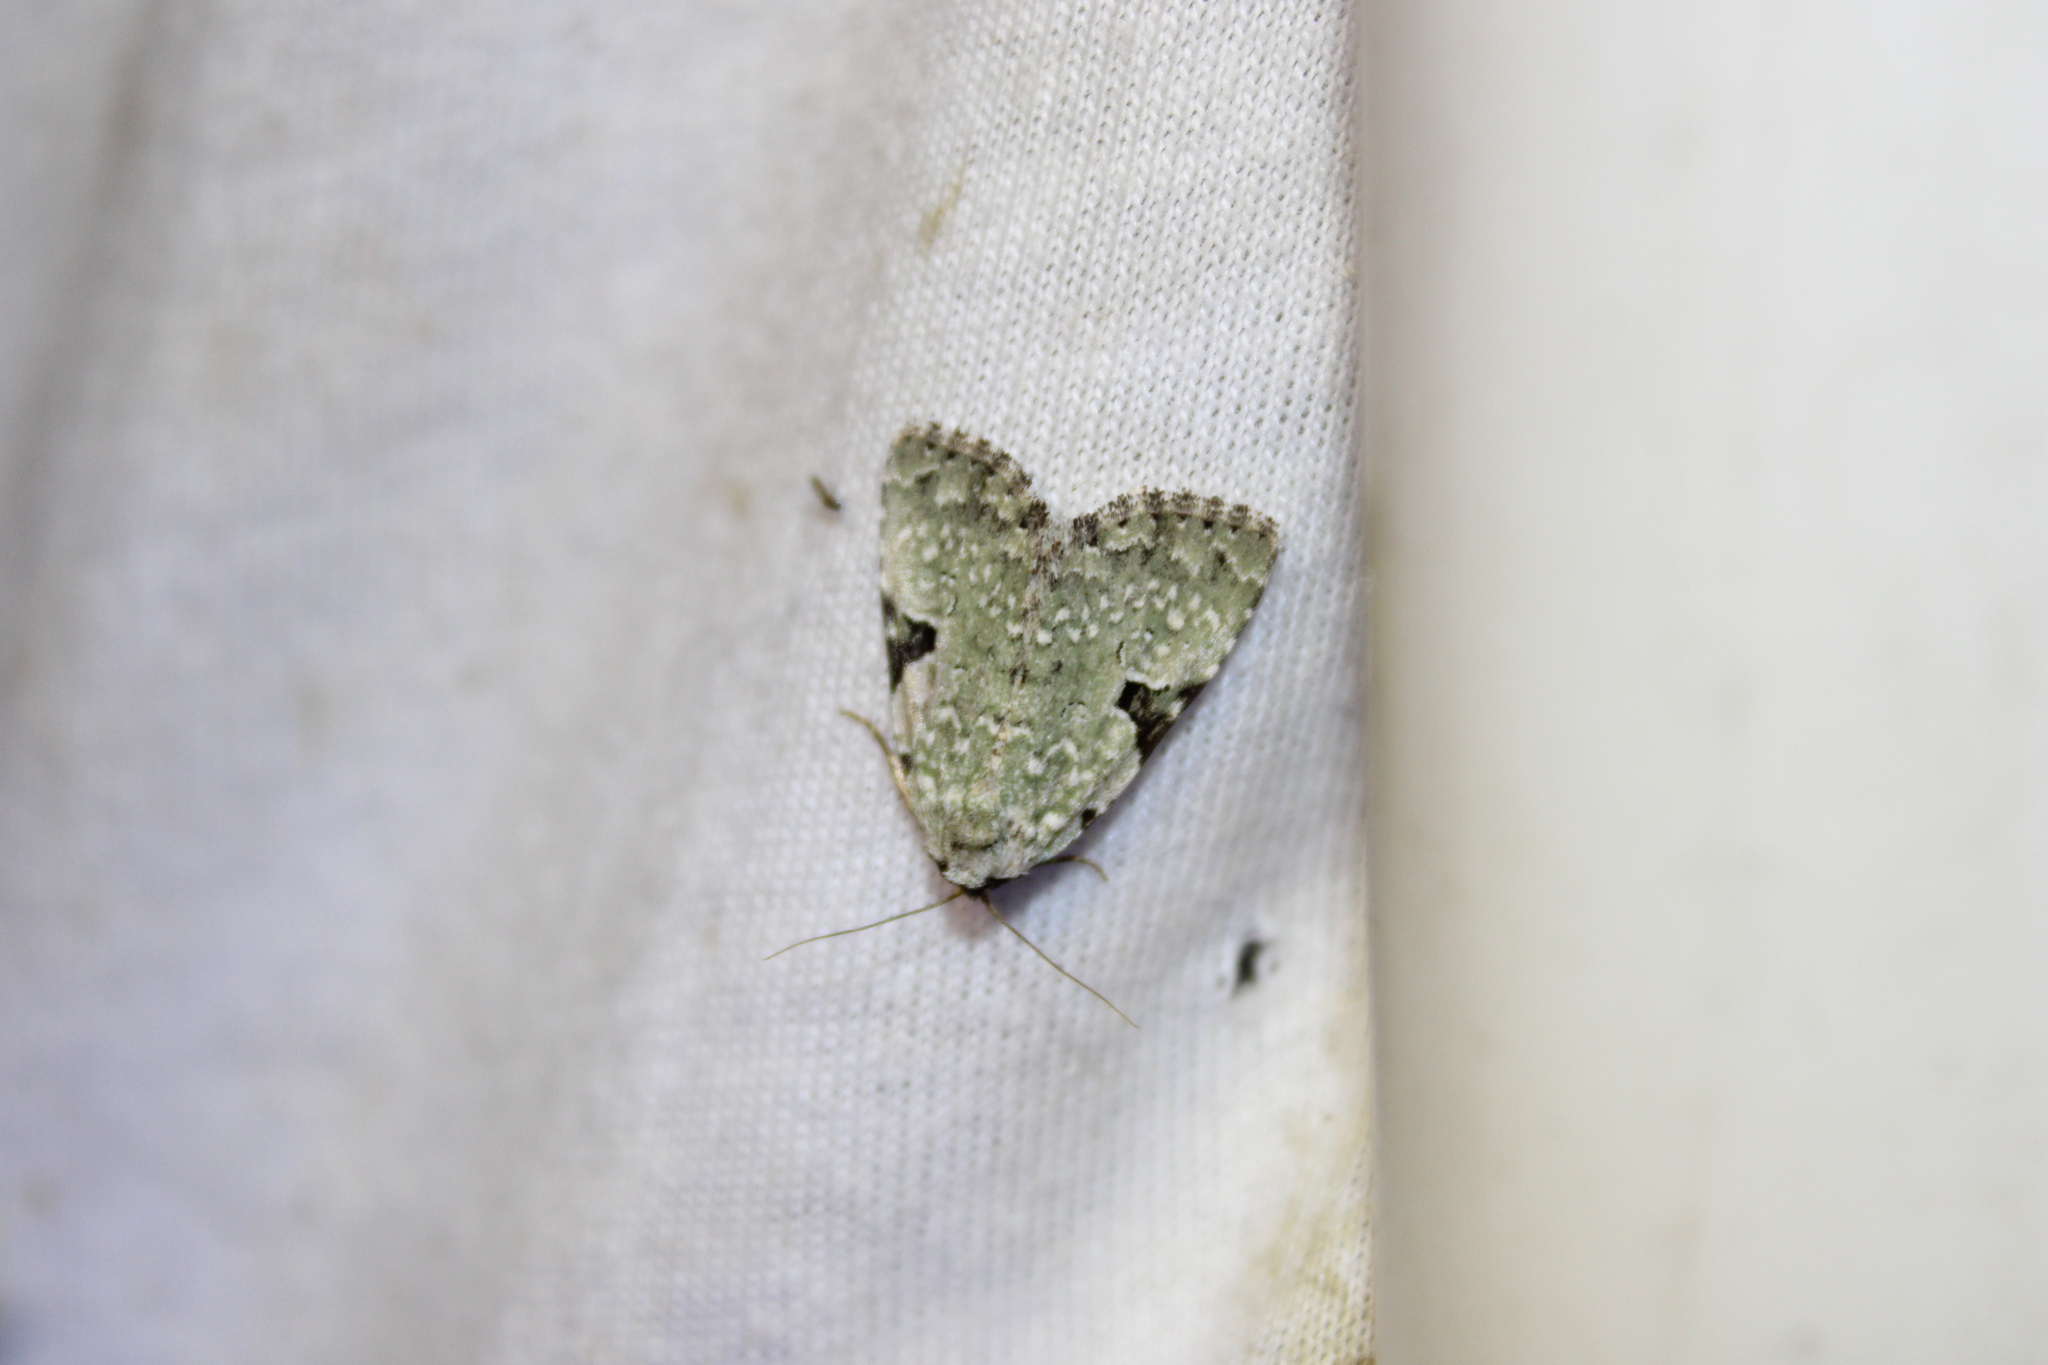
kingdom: Animalia
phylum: Arthropoda
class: Insecta
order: Lepidoptera
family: Noctuidae
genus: Leuconycta
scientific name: Leuconycta diphteroides
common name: Green leuconycta moth
